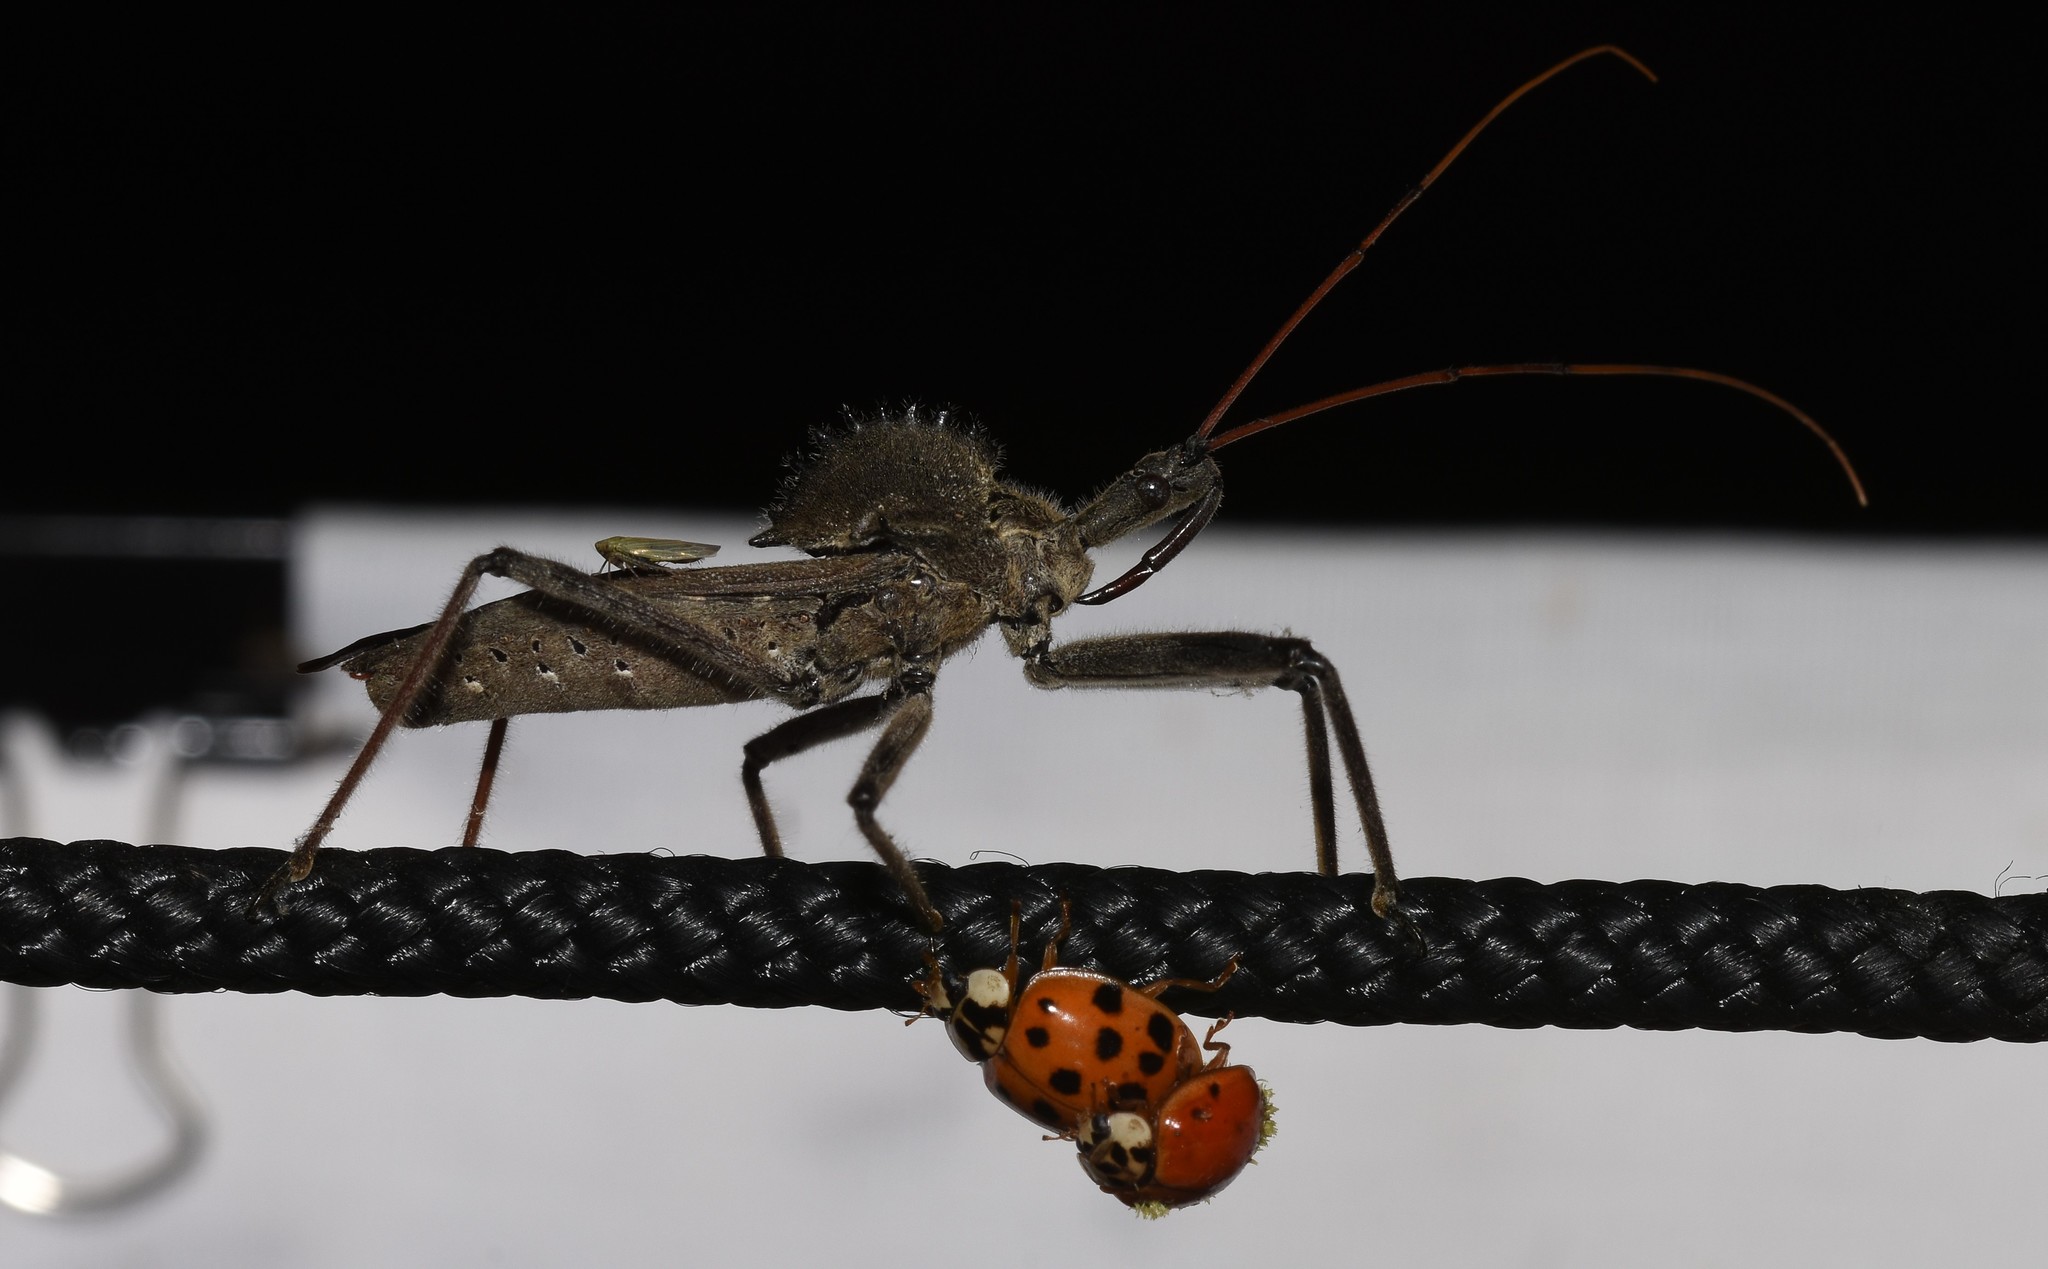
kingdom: Animalia
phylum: Arthropoda
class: Insecta
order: Hemiptera
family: Reduviidae
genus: Arilus
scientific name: Arilus cristatus
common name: North american wheel bug
